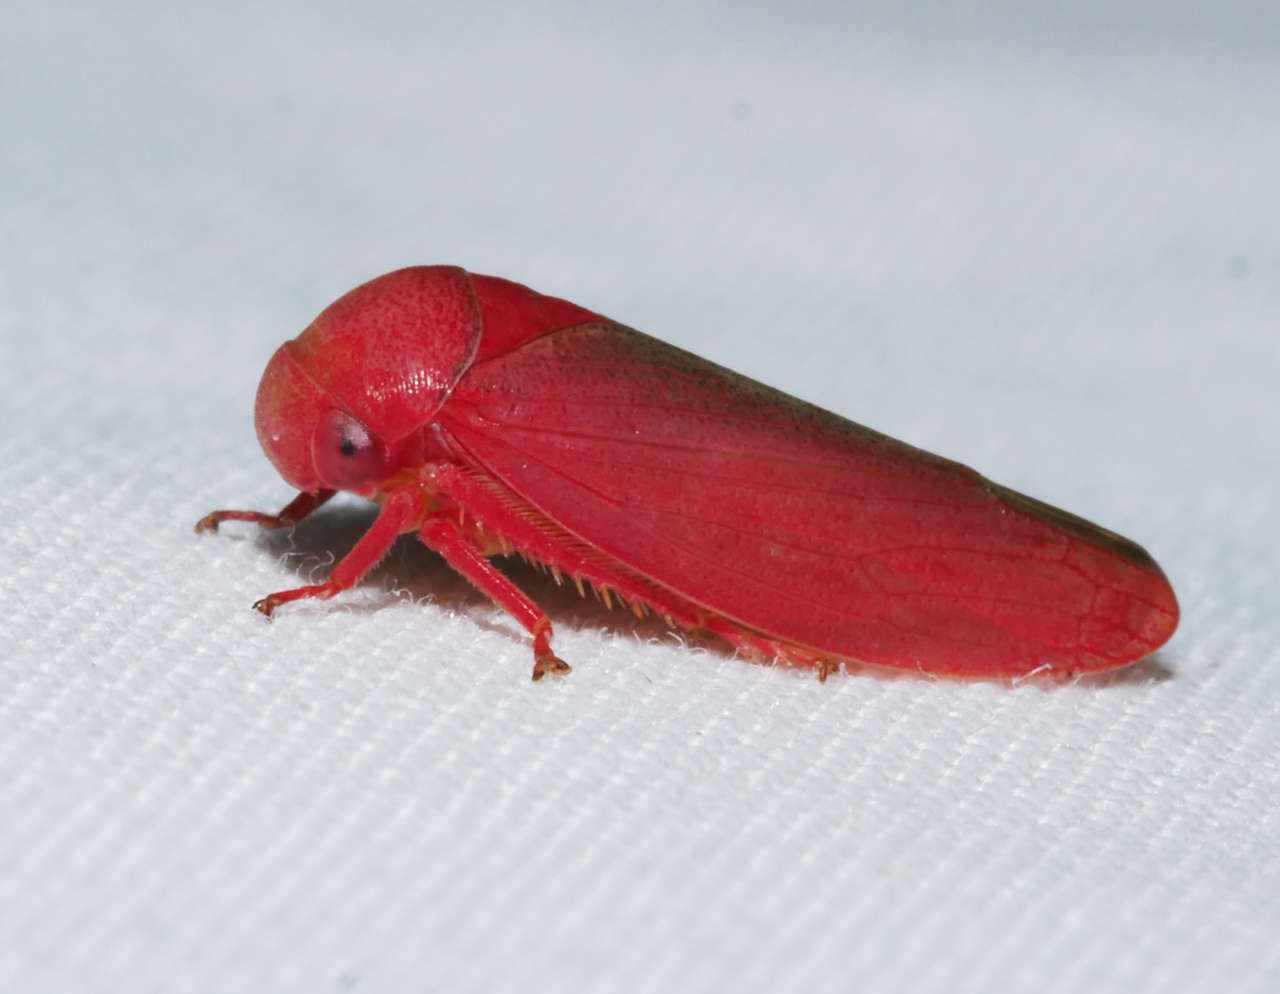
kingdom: Animalia
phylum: Arthropoda
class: Insecta
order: Hemiptera
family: Cicadellidae
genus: Trocnada
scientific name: Trocnada dorsigera
